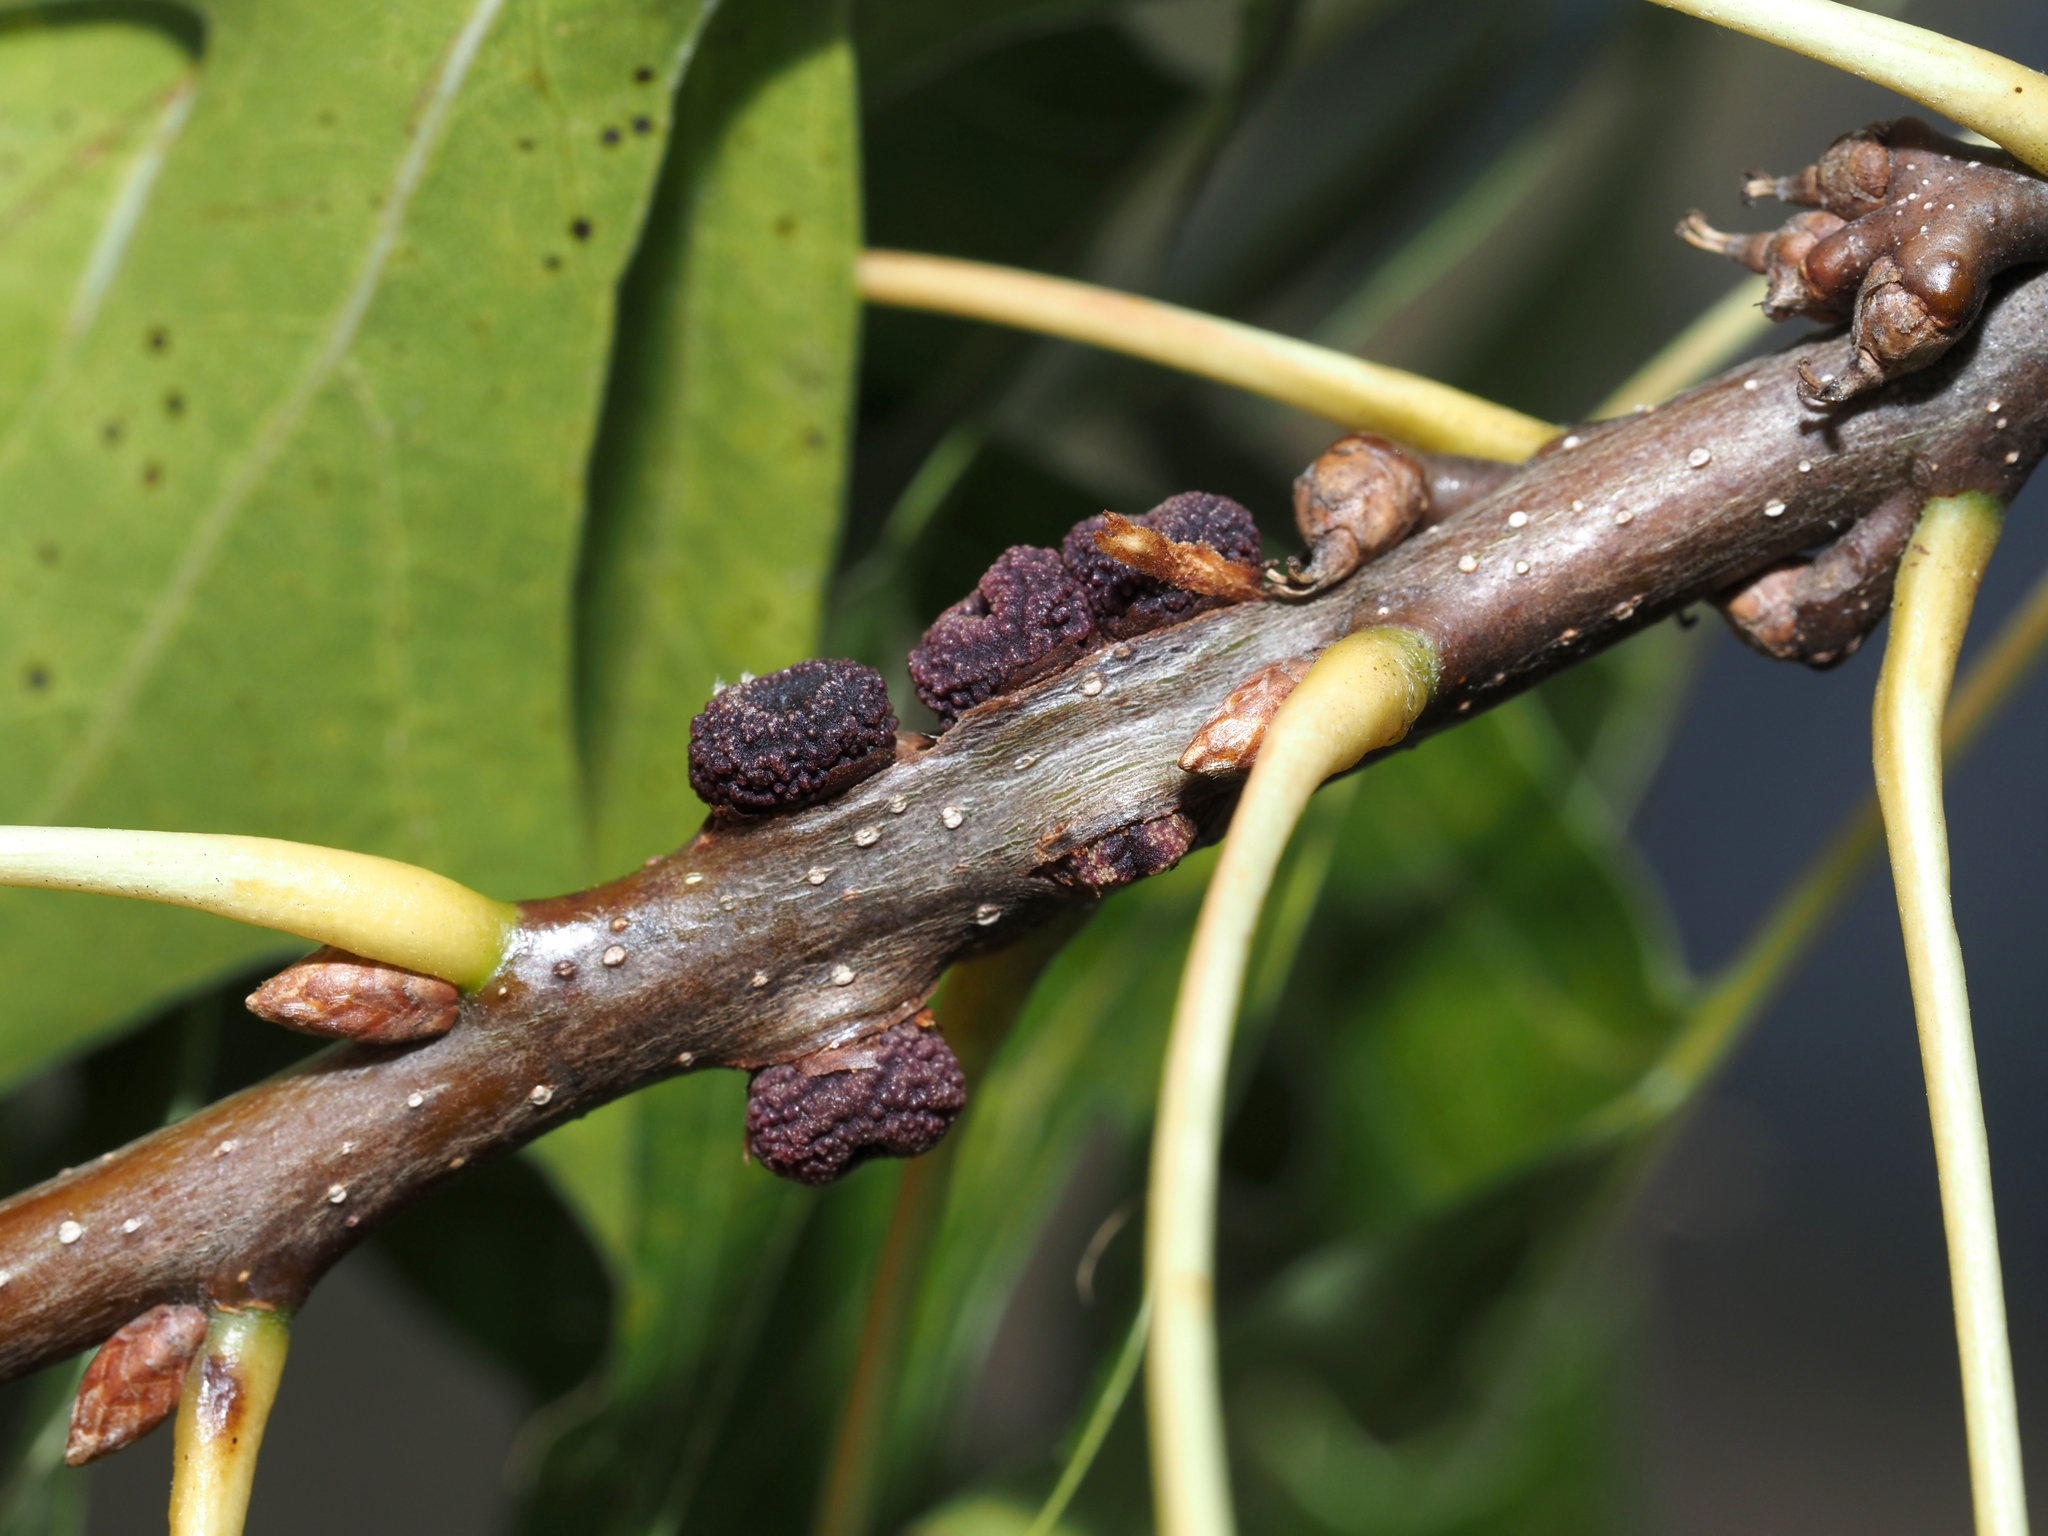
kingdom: Animalia
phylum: Arthropoda
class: Insecta
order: Hymenoptera
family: Cynipidae
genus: Kokkocynips
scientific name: Kokkocynips difficilis
